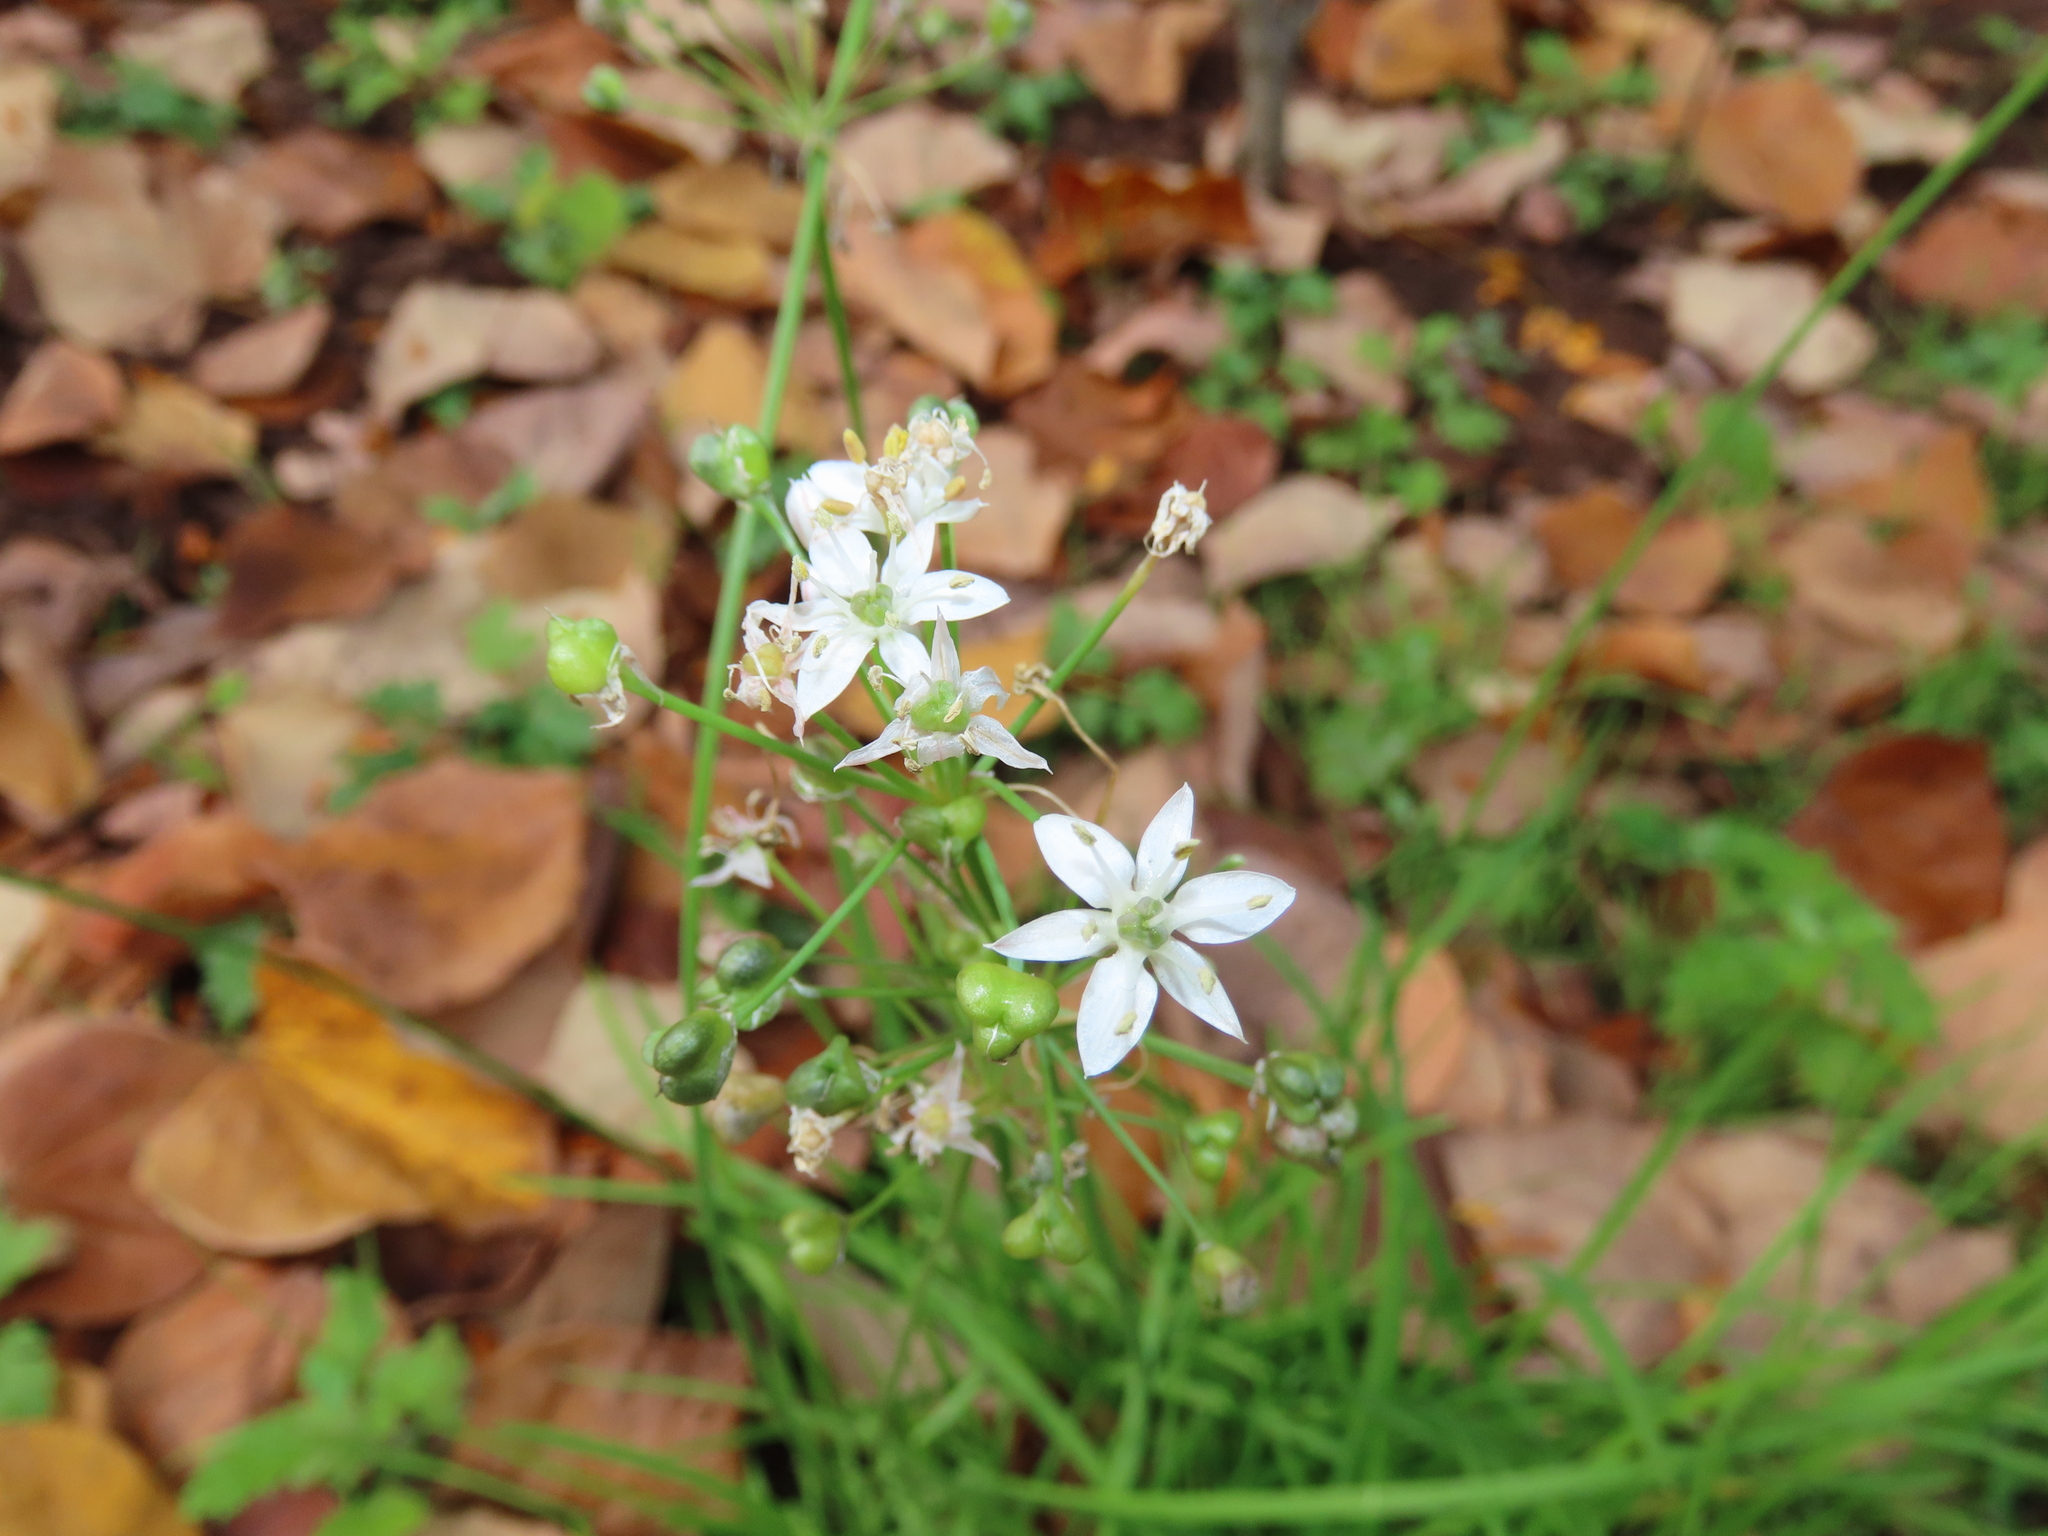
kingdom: Plantae
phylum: Tracheophyta
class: Liliopsida
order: Asparagales
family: Amaryllidaceae
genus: Allium
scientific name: Allium tuberosum
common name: Chinese chives
